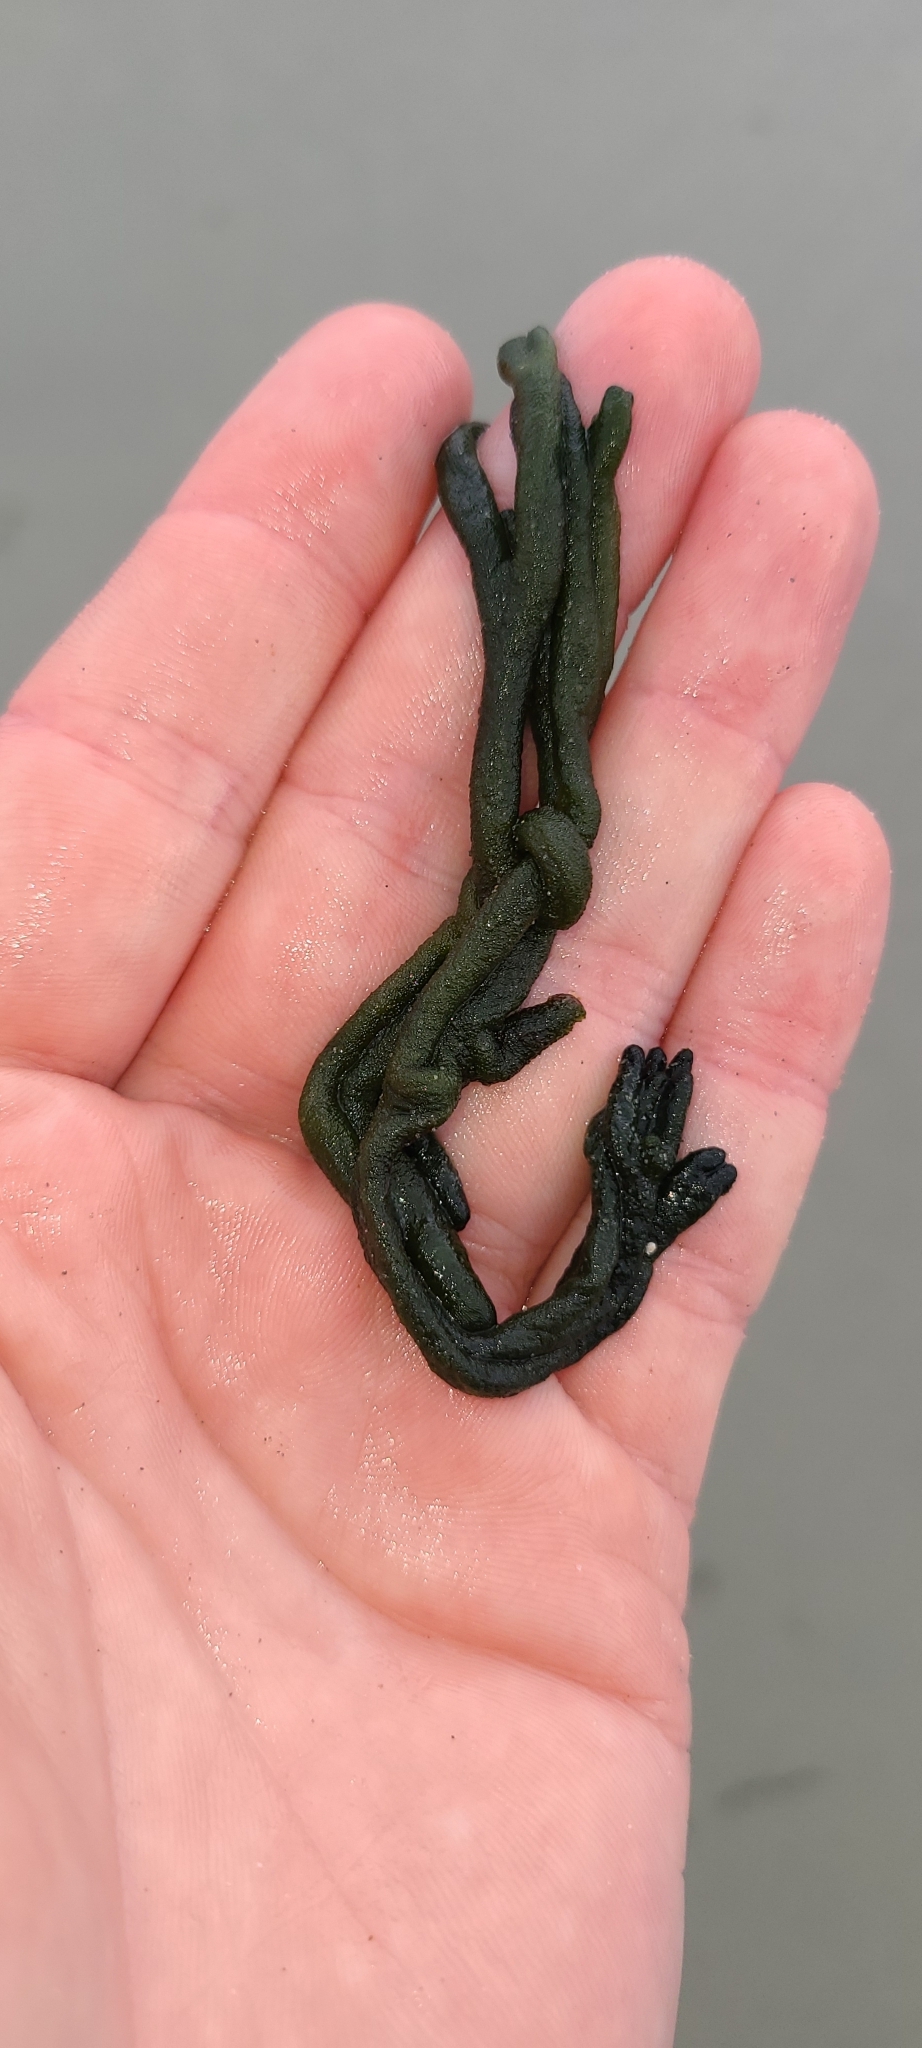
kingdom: Plantae
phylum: Chlorophyta
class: Ulvophyceae
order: Bryopsidales
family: Codiaceae
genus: Codium
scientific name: Codium fragile
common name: Dead man's fingers
